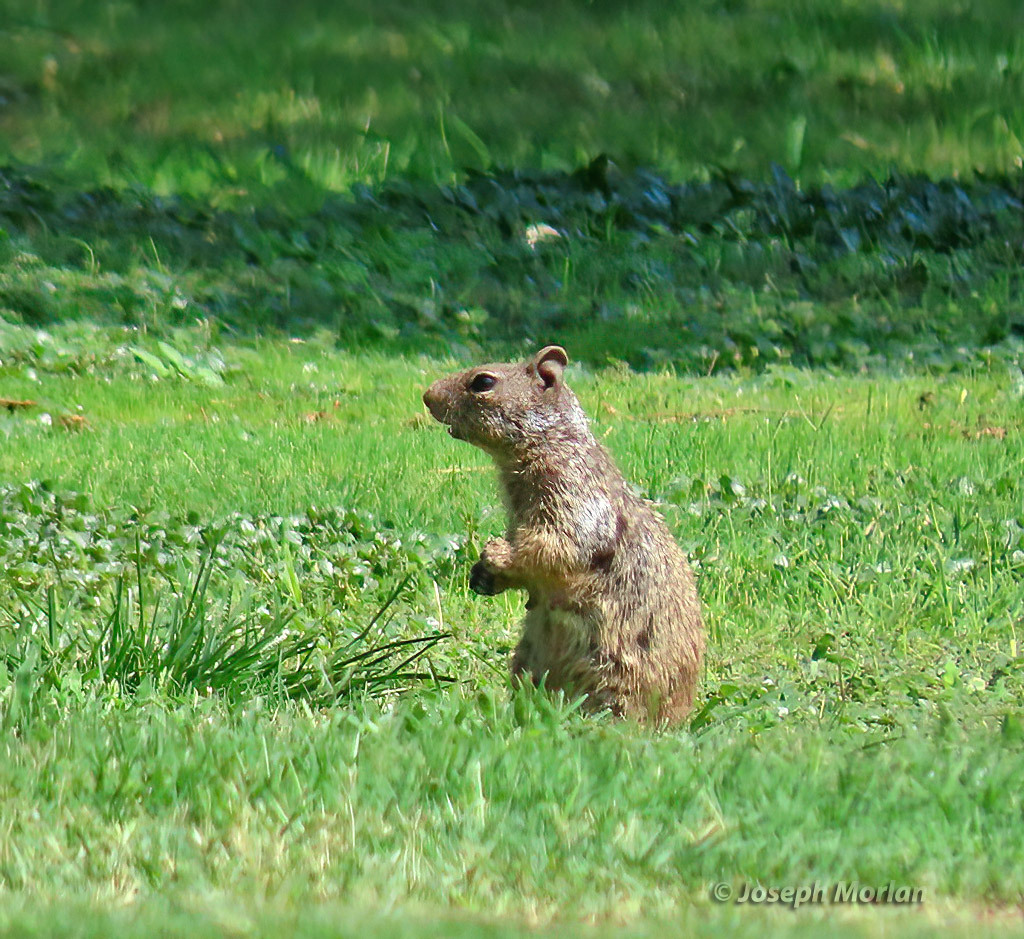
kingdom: Animalia
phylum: Chordata
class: Mammalia
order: Rodentia
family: Sciuridae
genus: Otospermophilus
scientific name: Otospermophilus variegatus
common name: Rock squirrel
